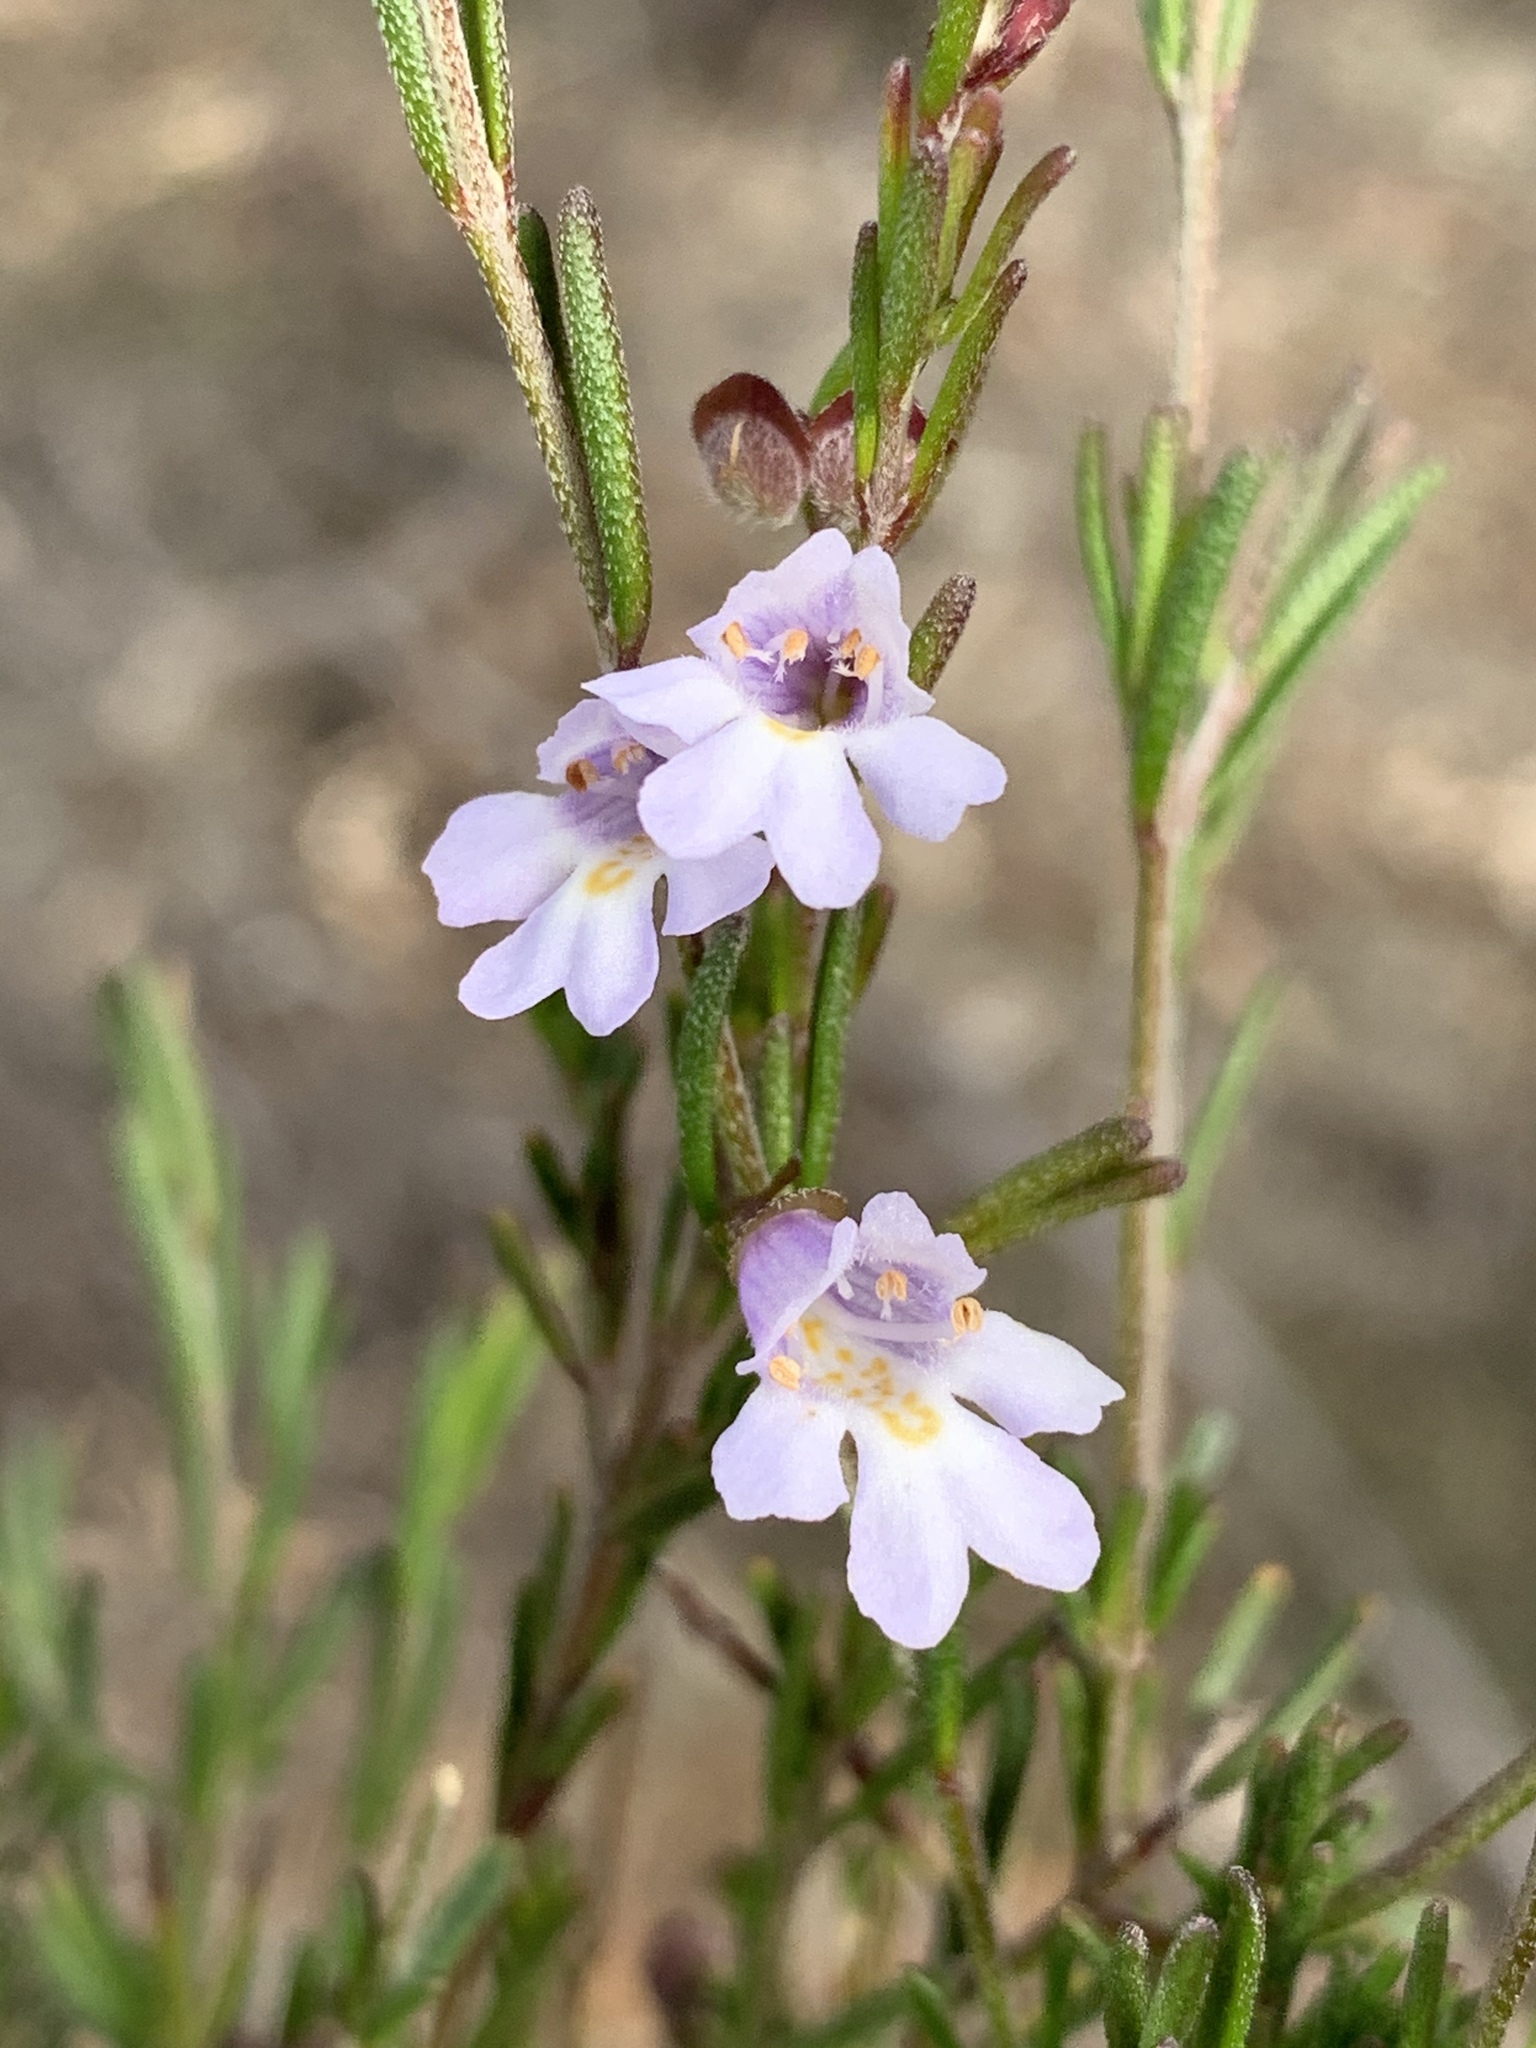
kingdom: Plantae
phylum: Tracheophyta
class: Magnoliopsida
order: Lamiales
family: Lamiaceae
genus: Prostanthera
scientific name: Prostanthera saxicola
